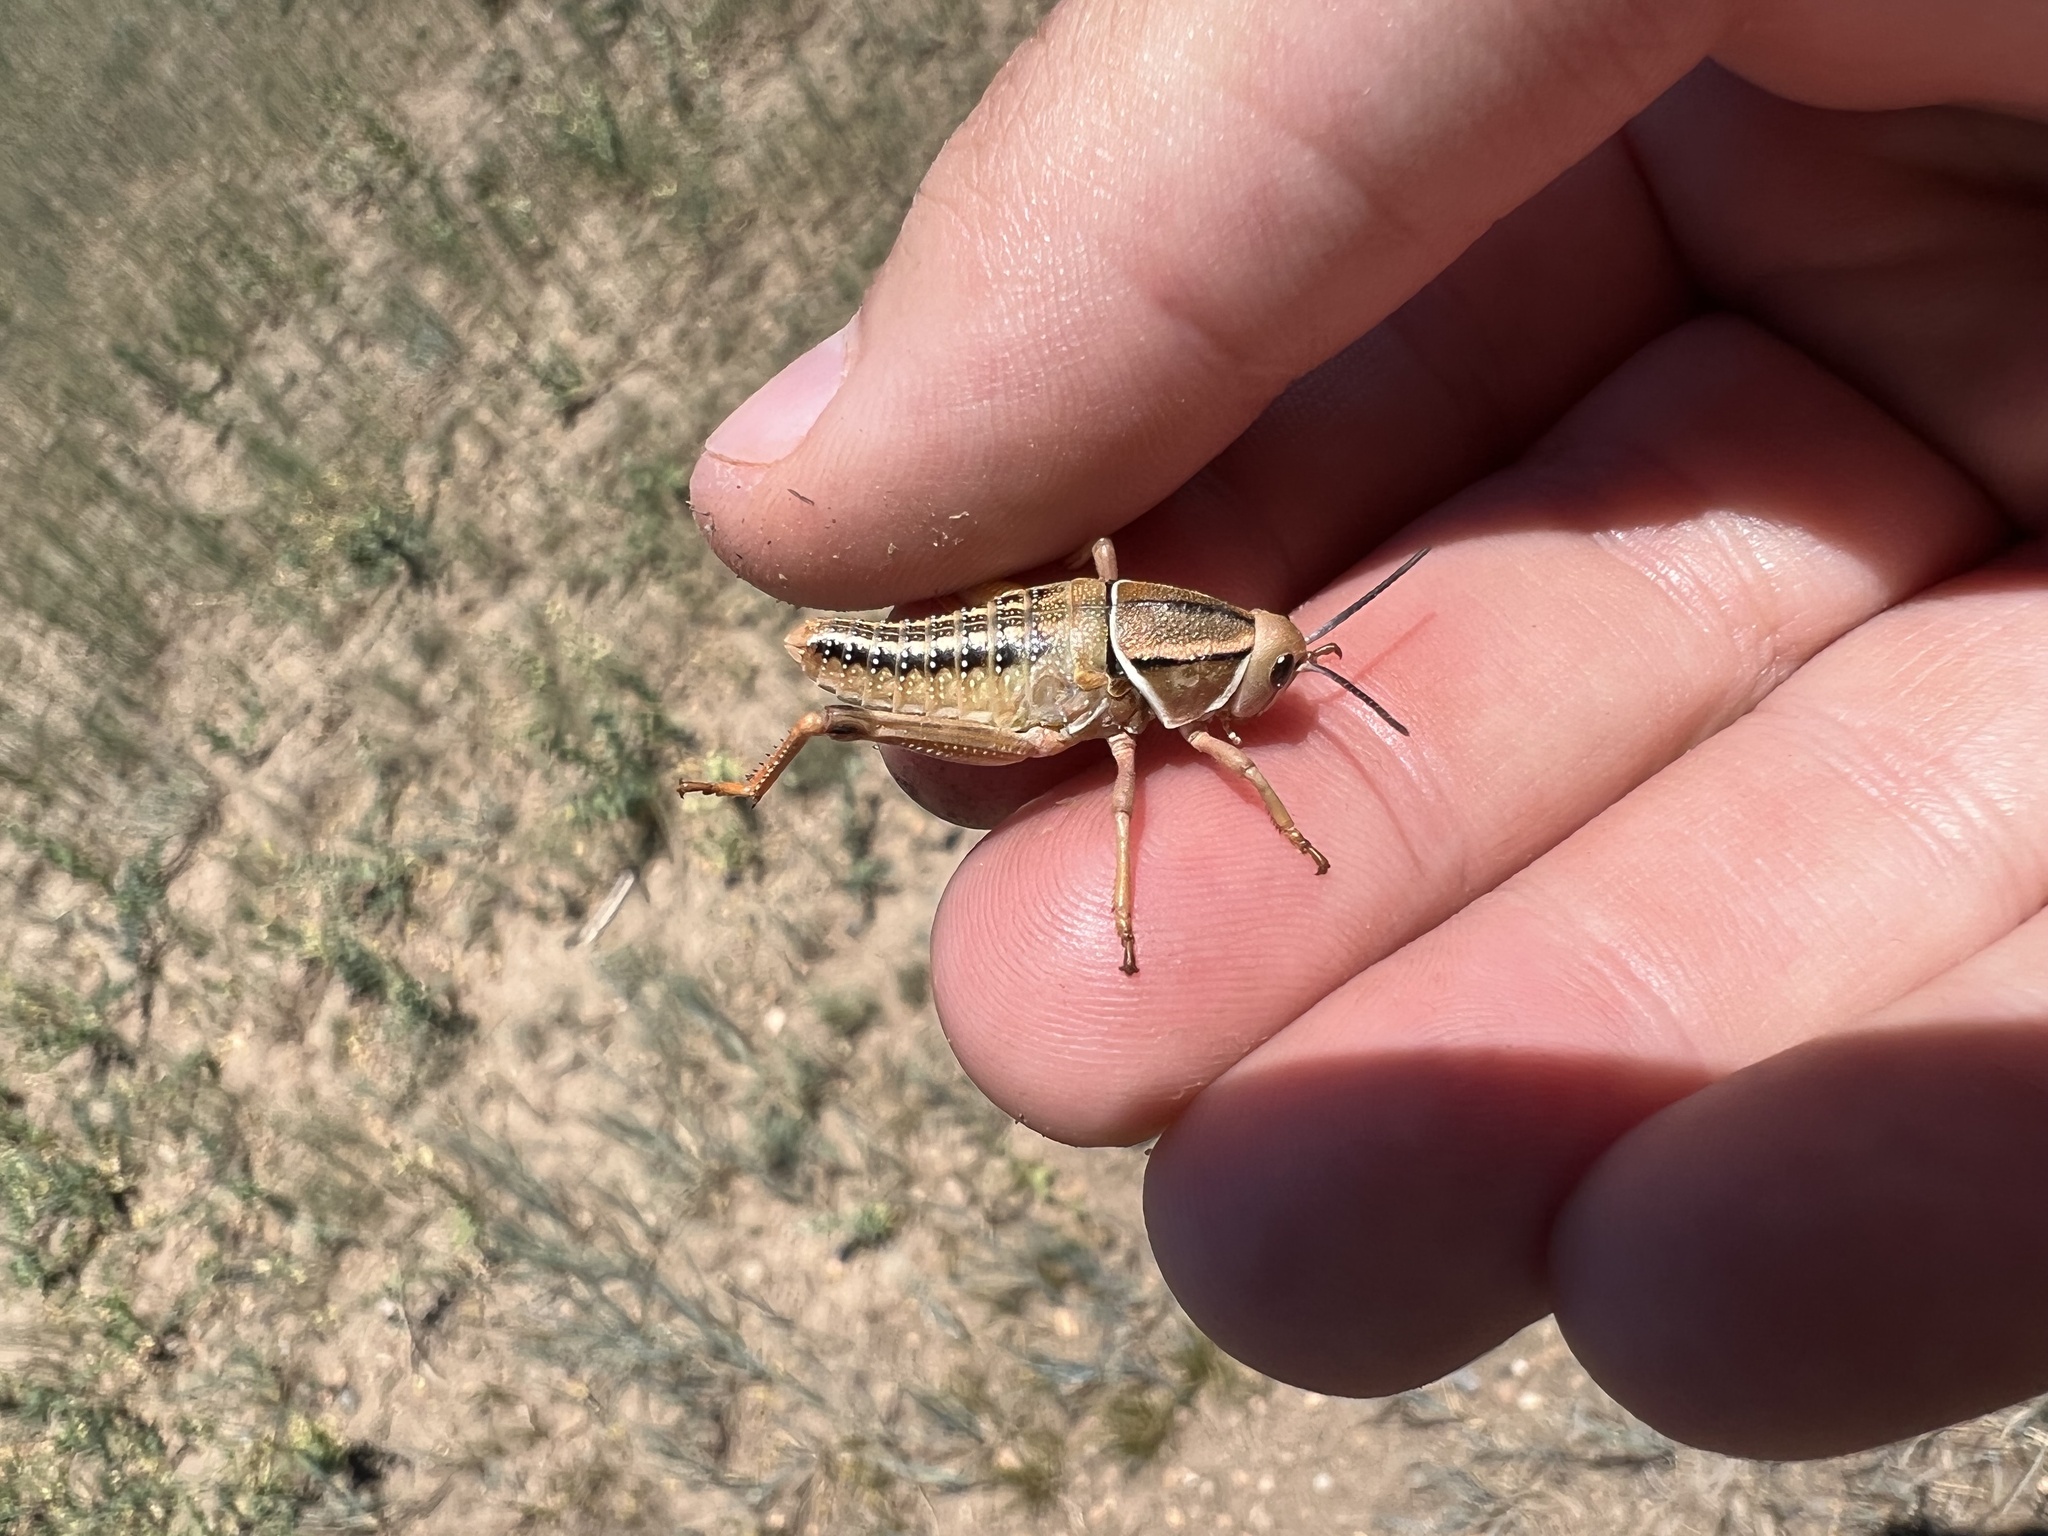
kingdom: Animalia
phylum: Arthropoda
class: Insecta
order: Orthoptera
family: Romaleidae
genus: Brachystola
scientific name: Brachystola magna
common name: Plains lubber grasshopper
